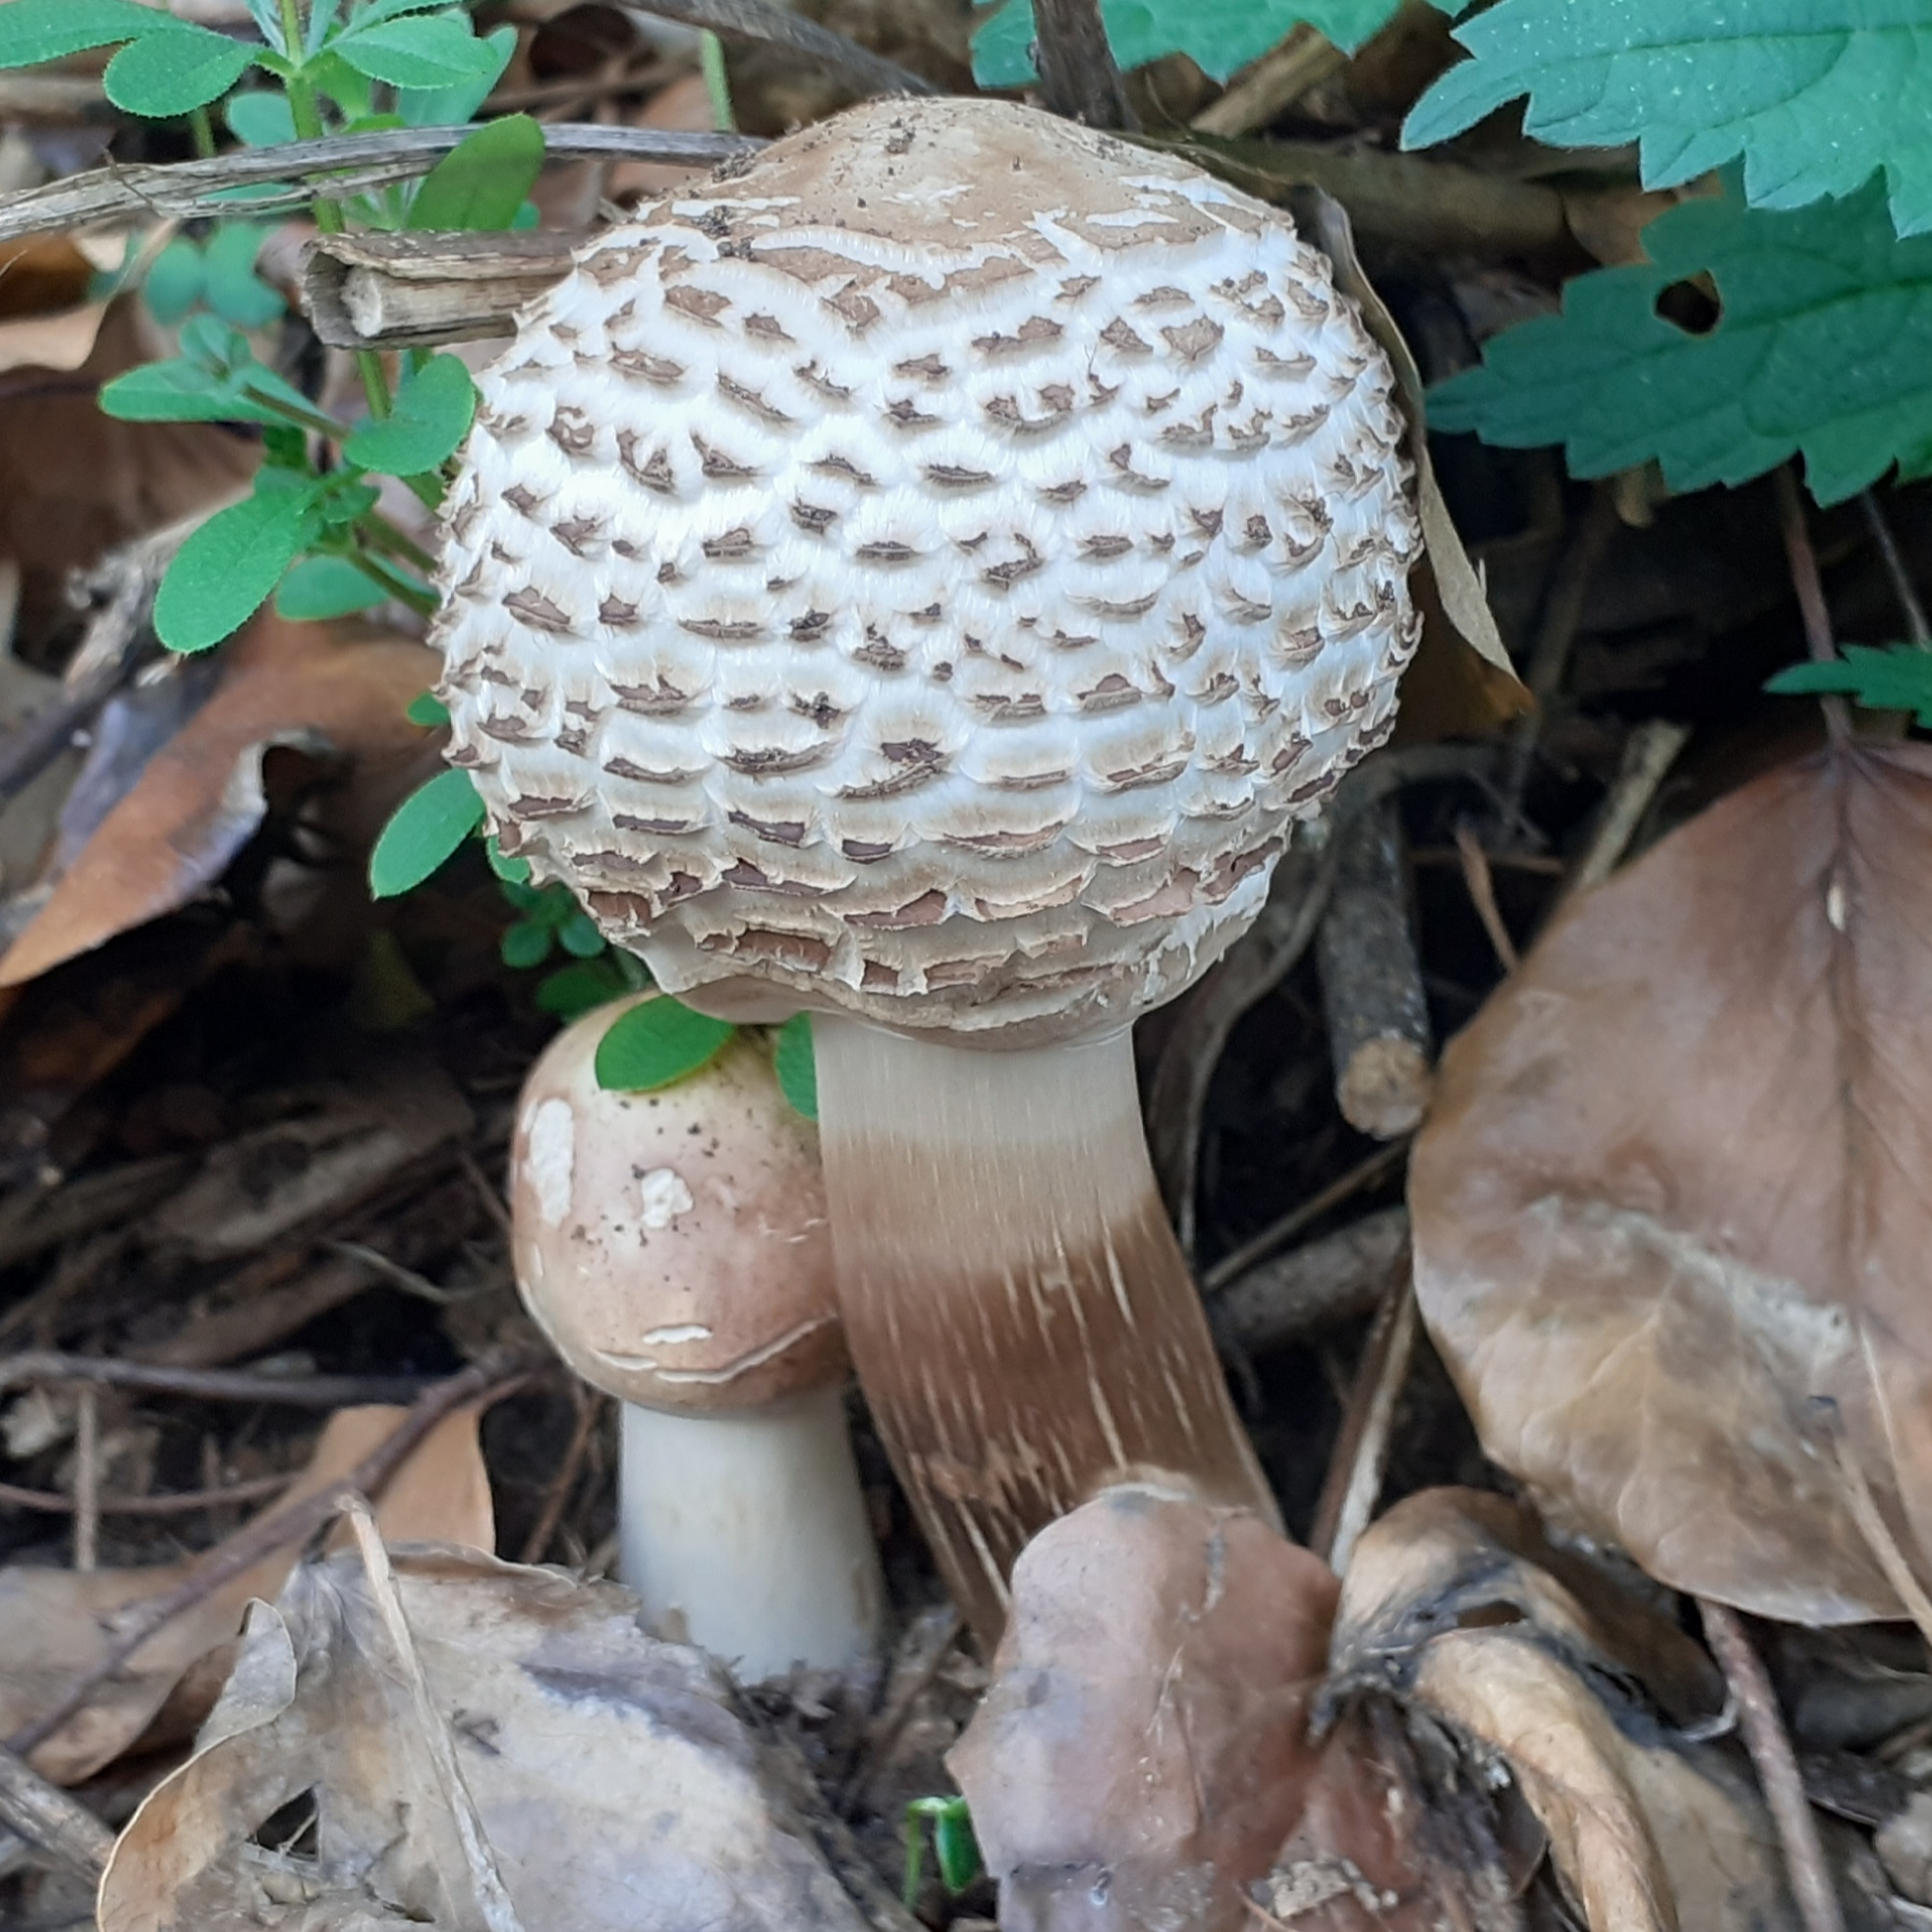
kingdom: Fungi
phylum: Basidiomycota
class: Agaricomycetes
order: Agaricales
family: Agaricaceae
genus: Chlorophyllum
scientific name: Chlorophyllum rhacodes
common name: Shaggy parasol
